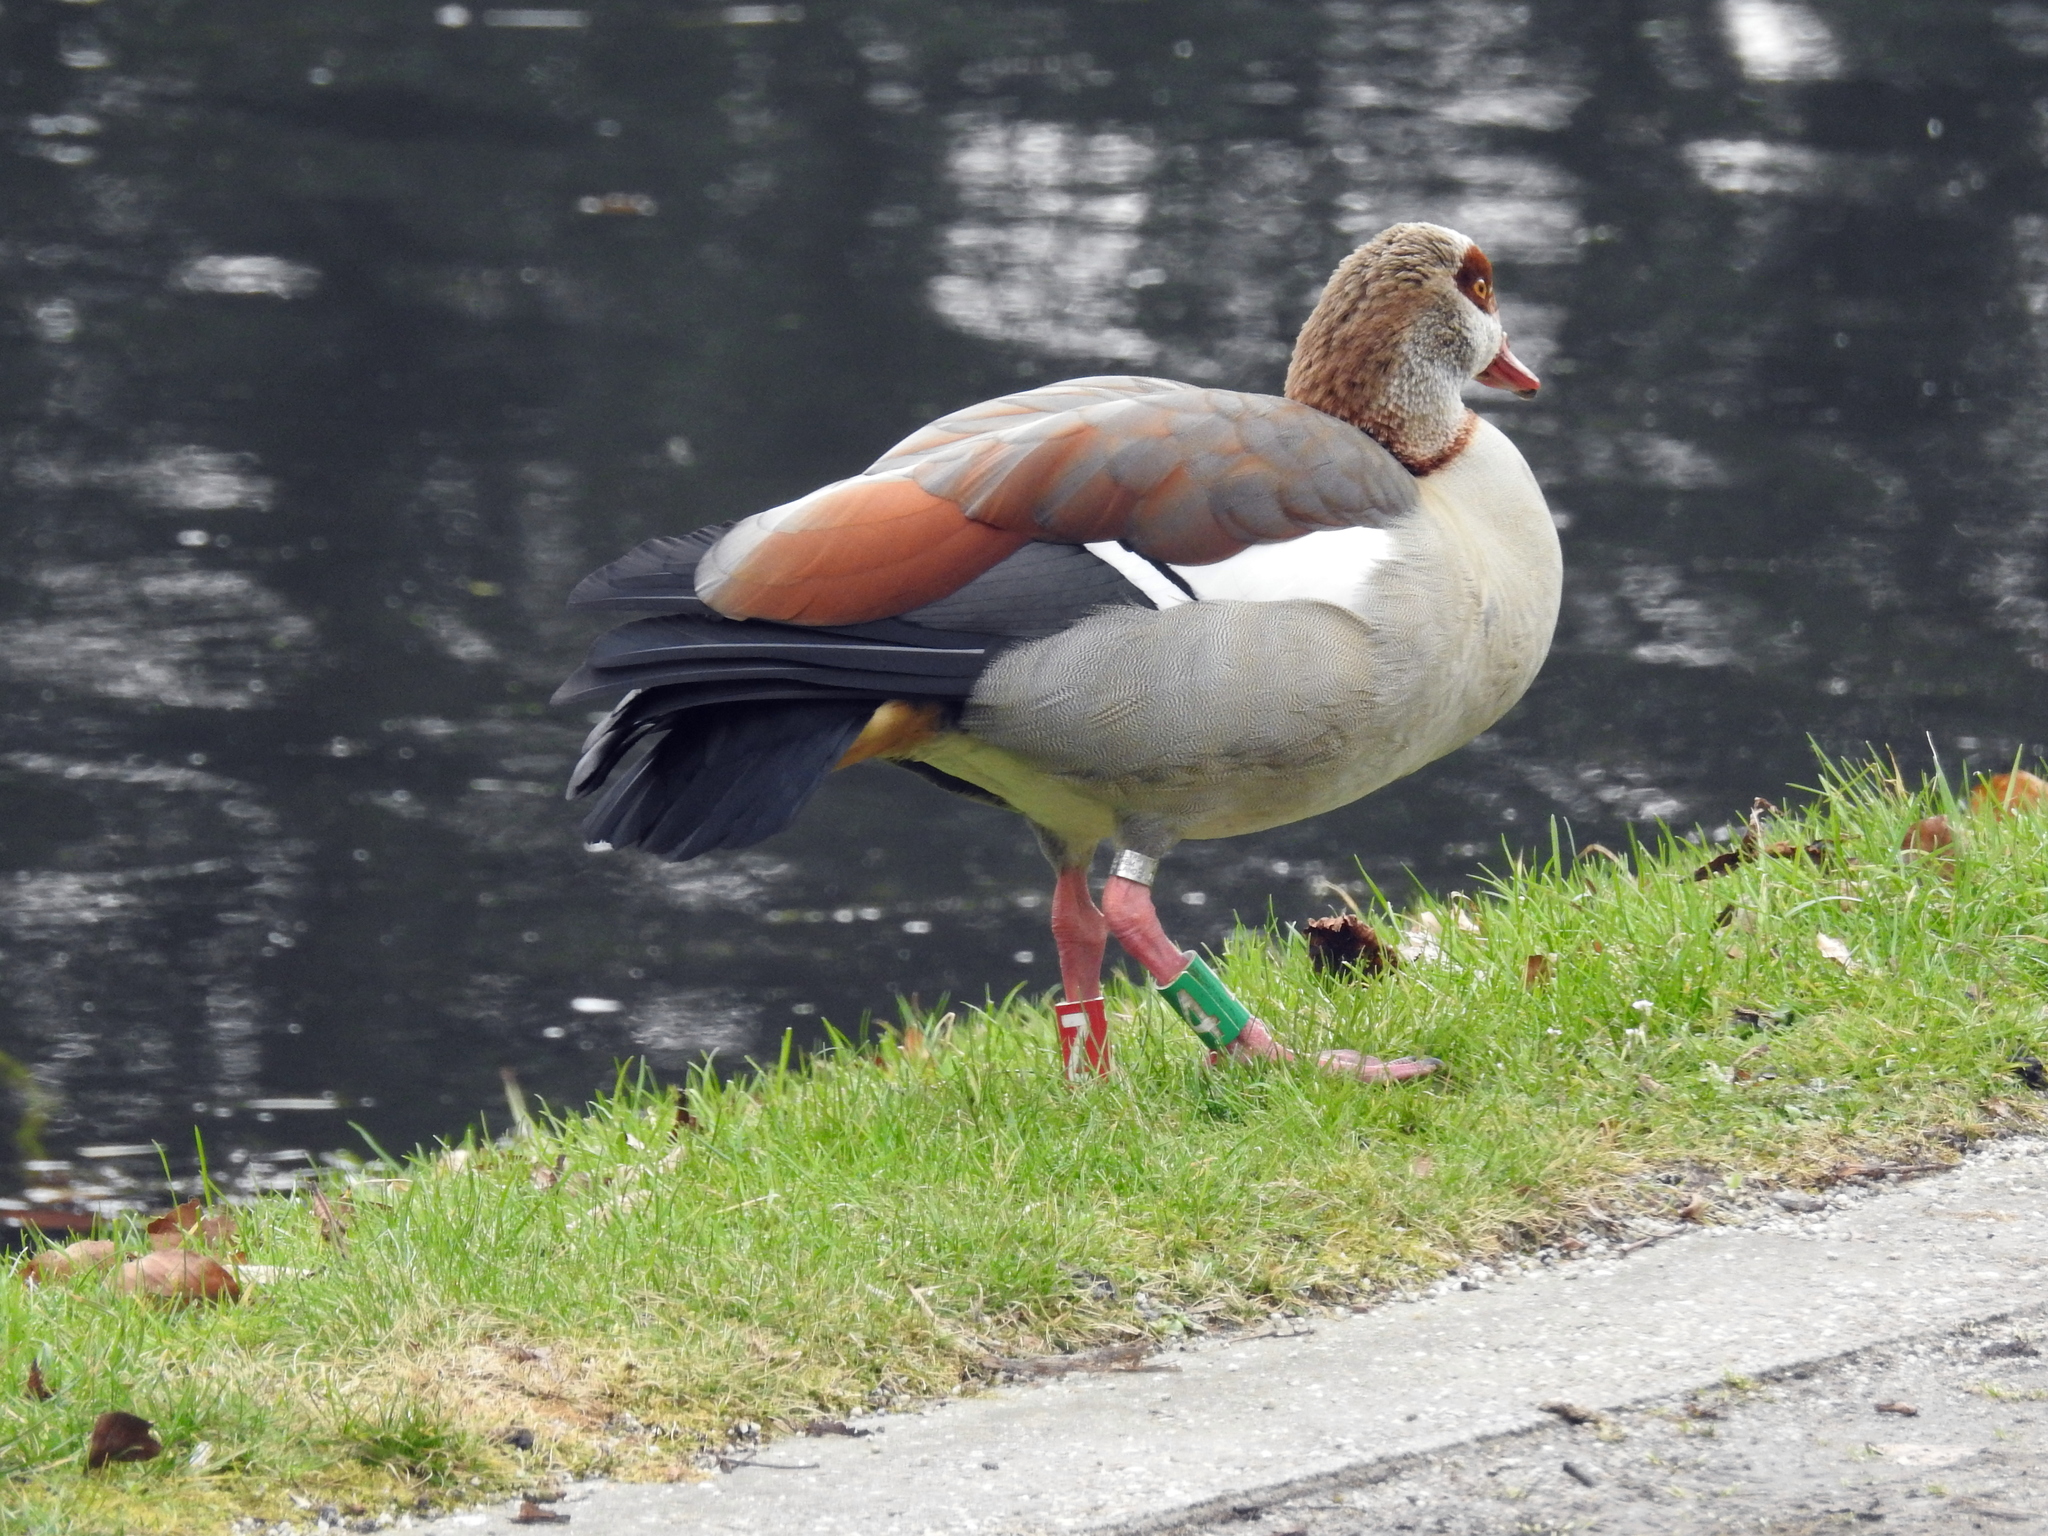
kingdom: Animalia
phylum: Chordata
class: Aves
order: Anseriformes
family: Anatidae
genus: Alopochen
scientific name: Alopochen aegyptiaca
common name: Egyptian goose
